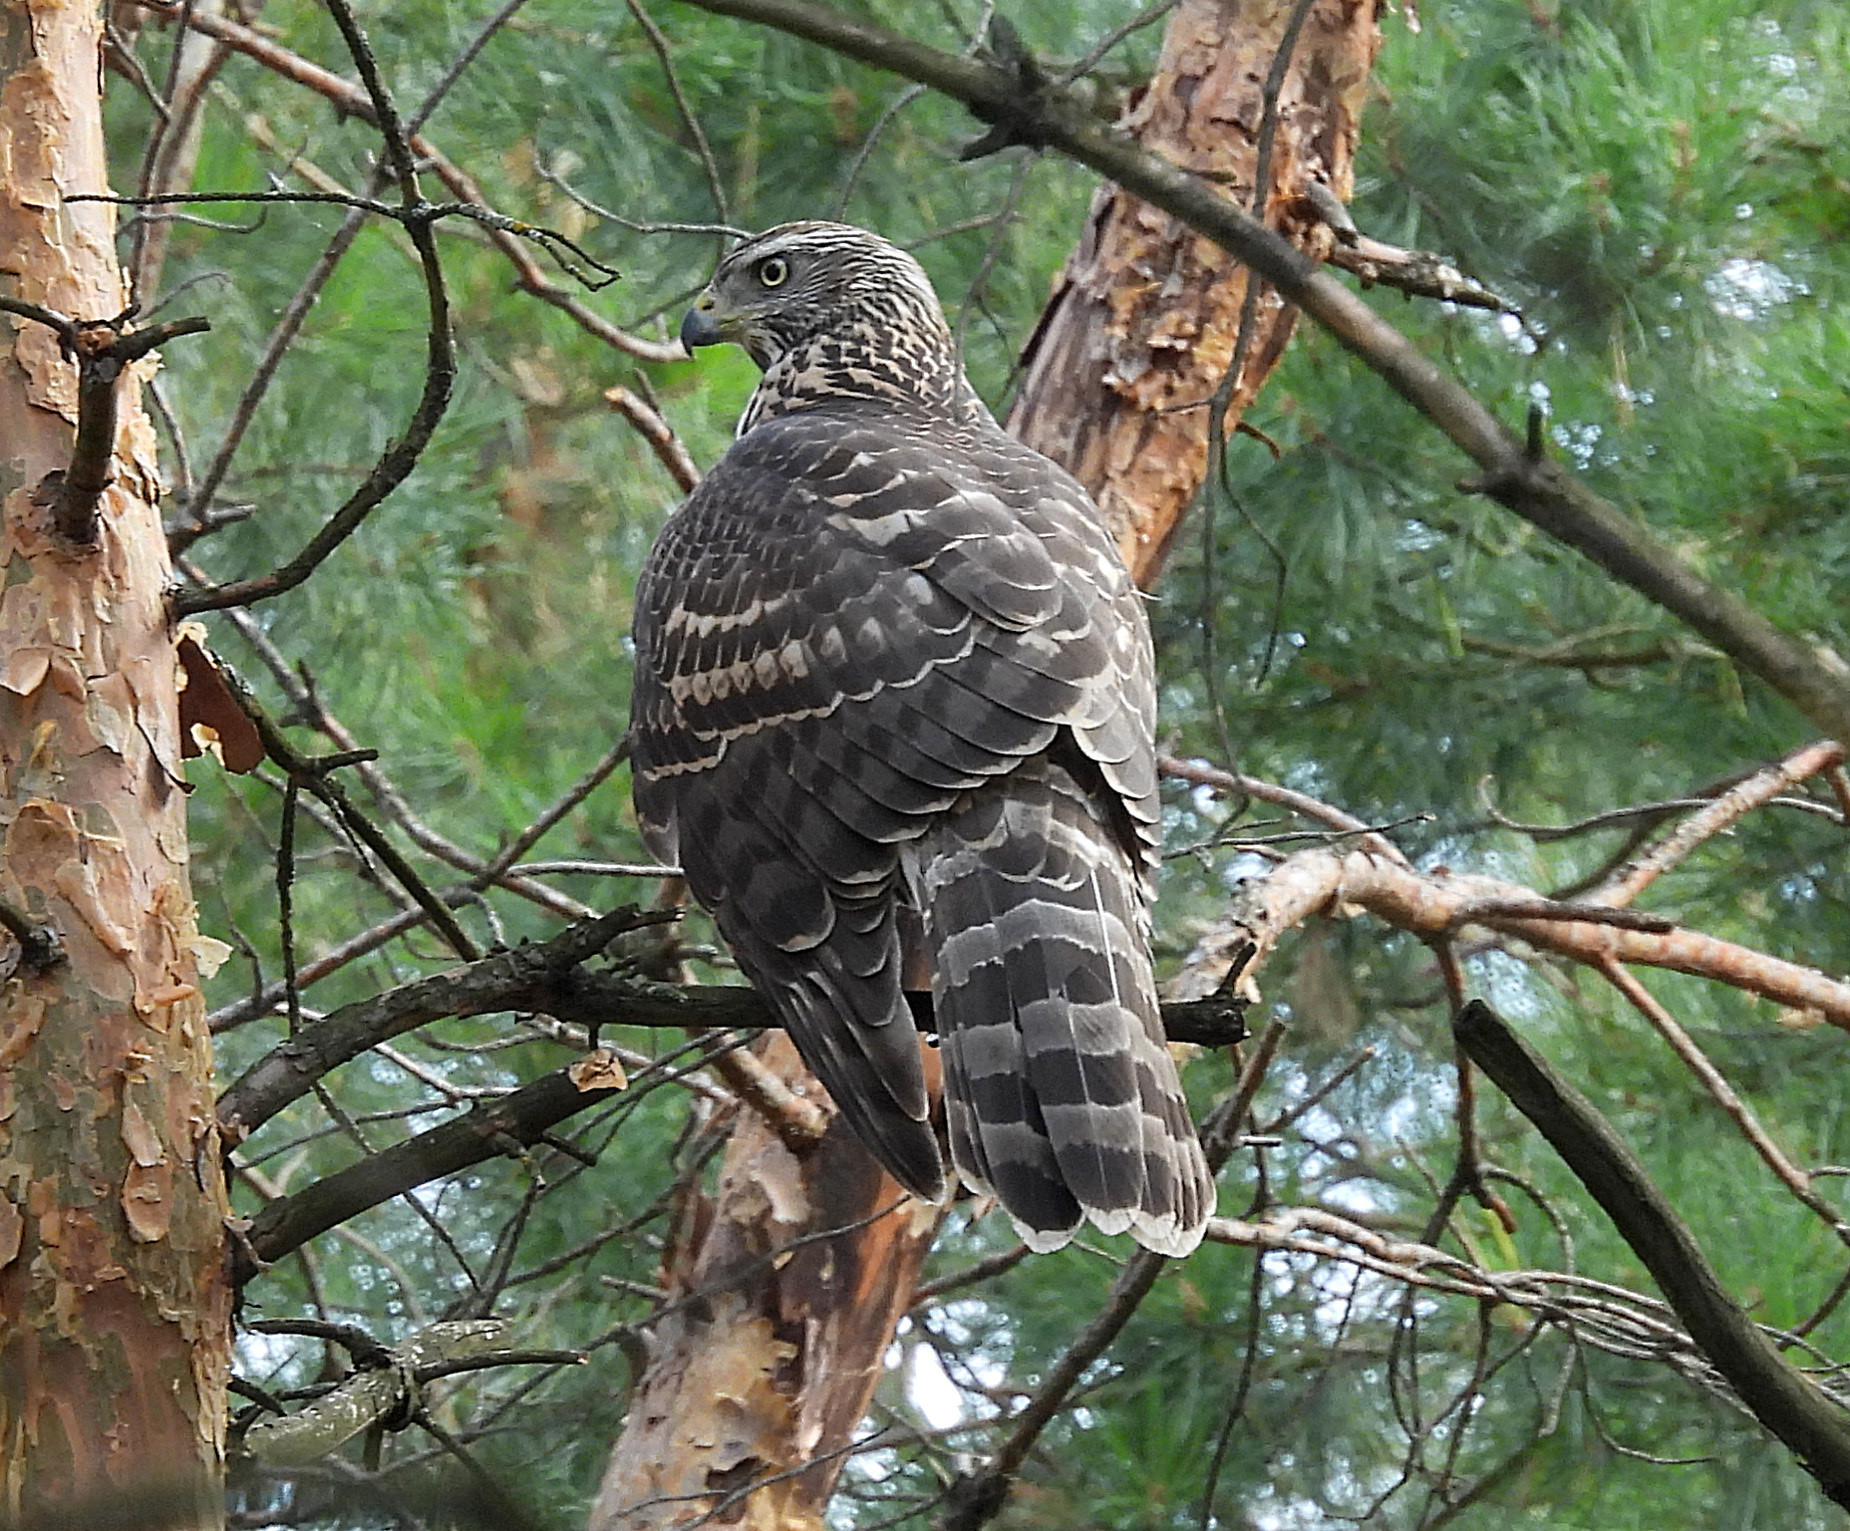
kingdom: Animalia
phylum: Chordata
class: Aves
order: Accipitriformes
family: Accipitridae
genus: Accipiter
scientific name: Accipiter gentilis
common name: Northern goshawk
